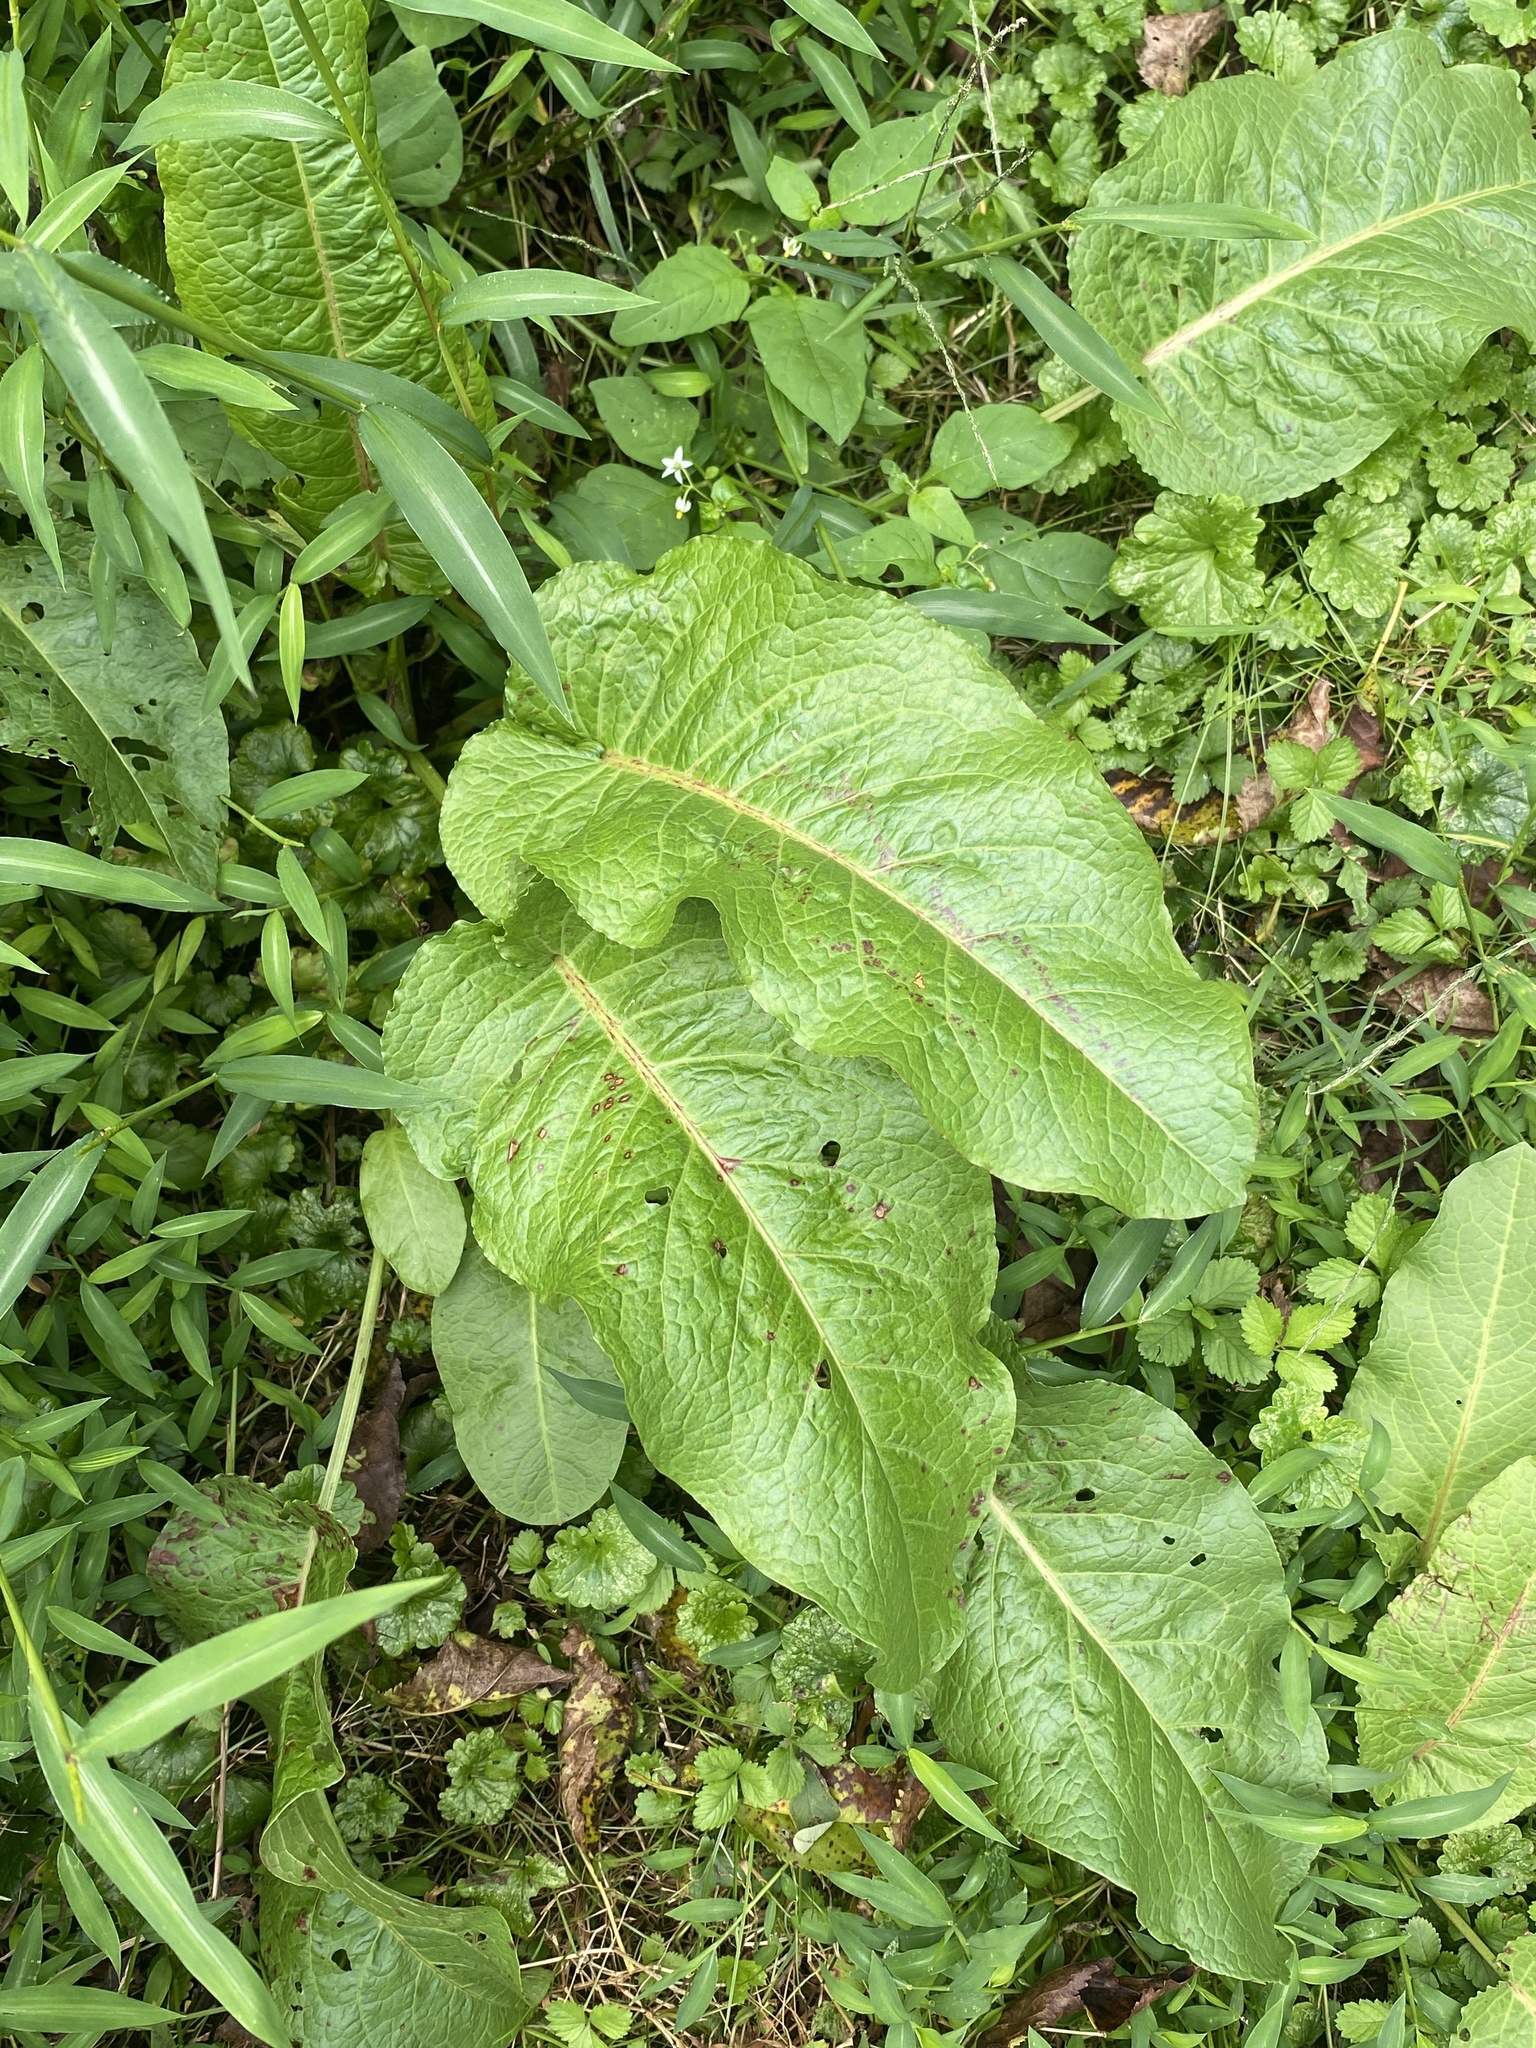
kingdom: Plantae
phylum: Tracheophyta
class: Magnoliopsida
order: Caryophyllales
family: Polygonaceae
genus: Rumex
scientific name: Rumex obtusifolius
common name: Bitter dock
